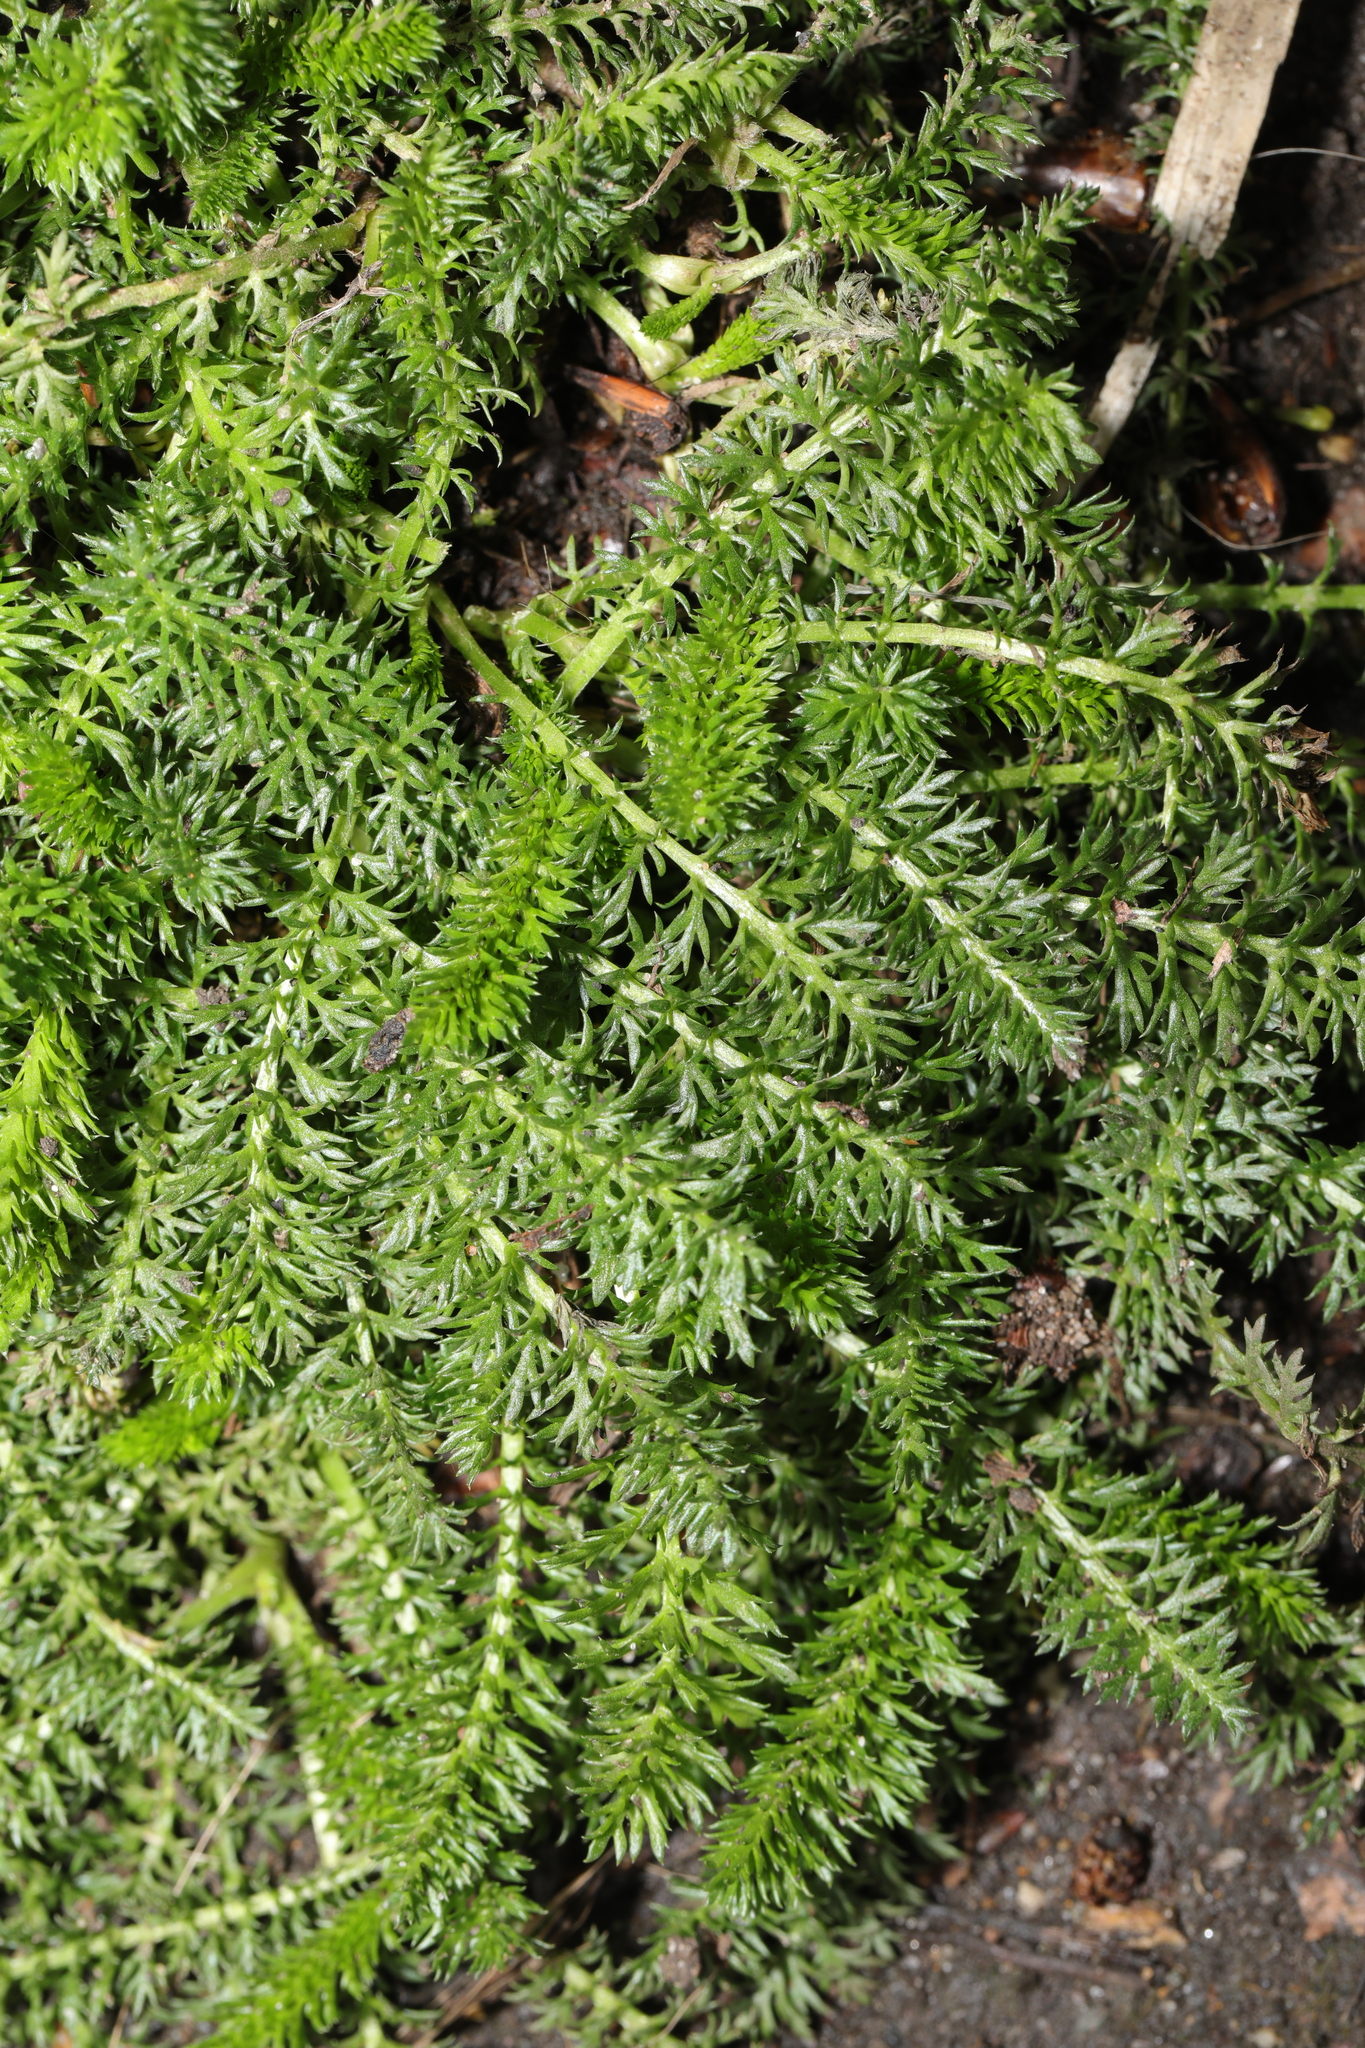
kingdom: Plantae
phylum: Tracheophyta
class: Magnoliopsida
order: Asterales
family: Asteraceae
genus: Achillea
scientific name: Achillea millefolium
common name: Yarrow
